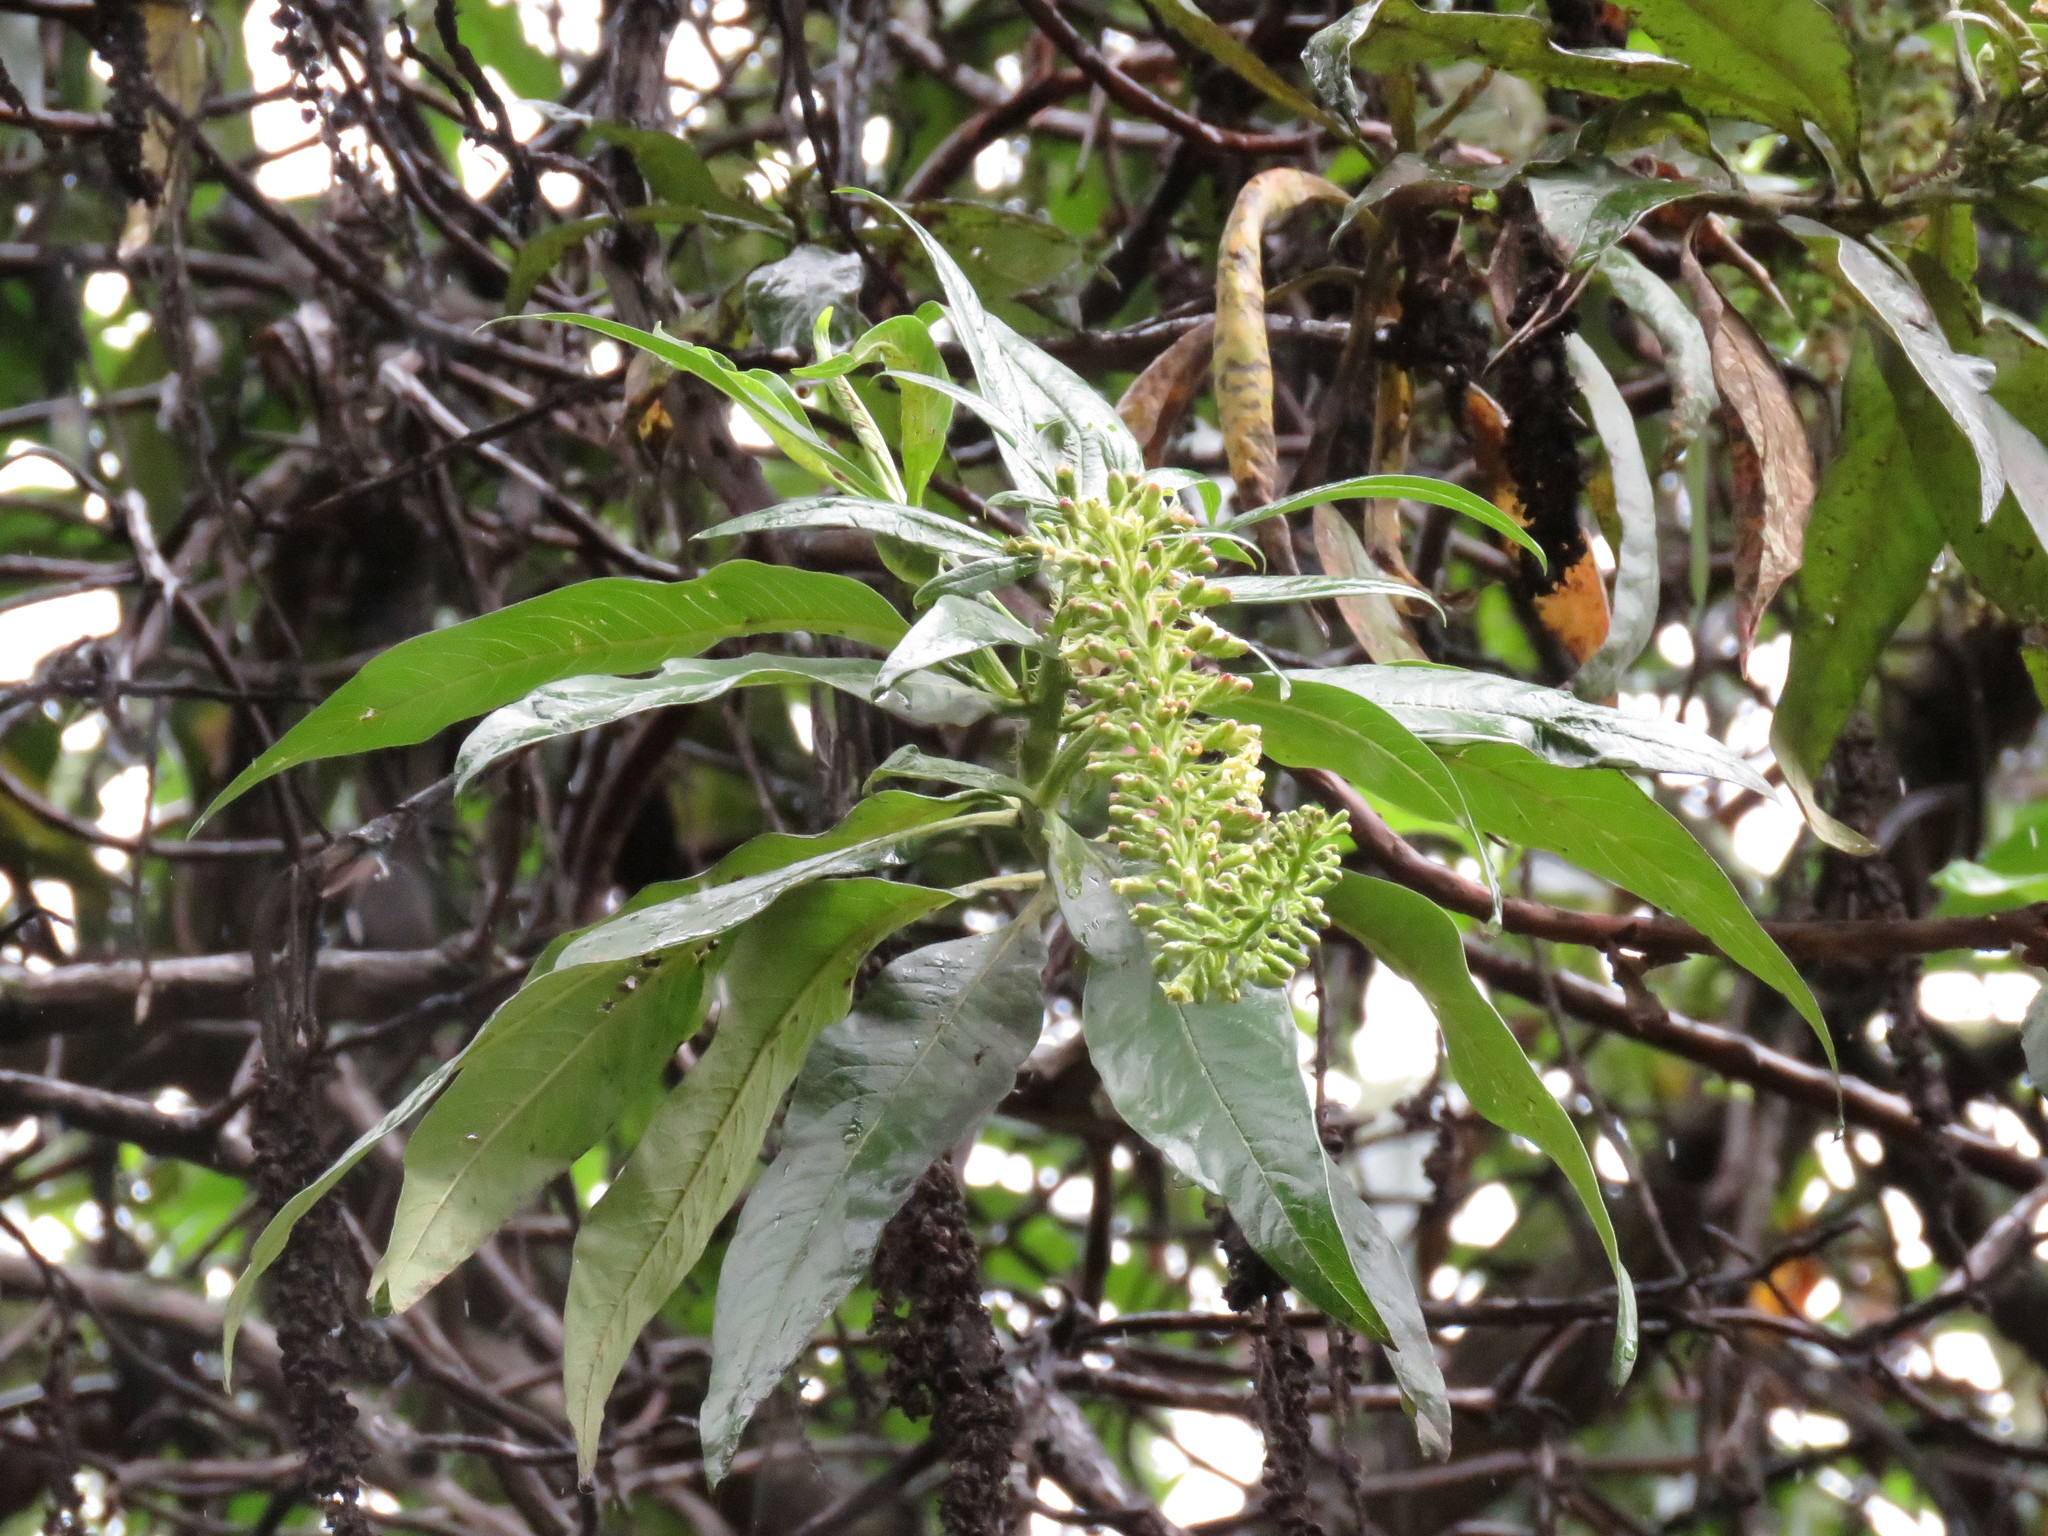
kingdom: Plantae
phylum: Tracheophyta
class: Magnoliopsida
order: Escalloniales
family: Escalloniaceae
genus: Escallonia
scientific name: Escallonia pendula
